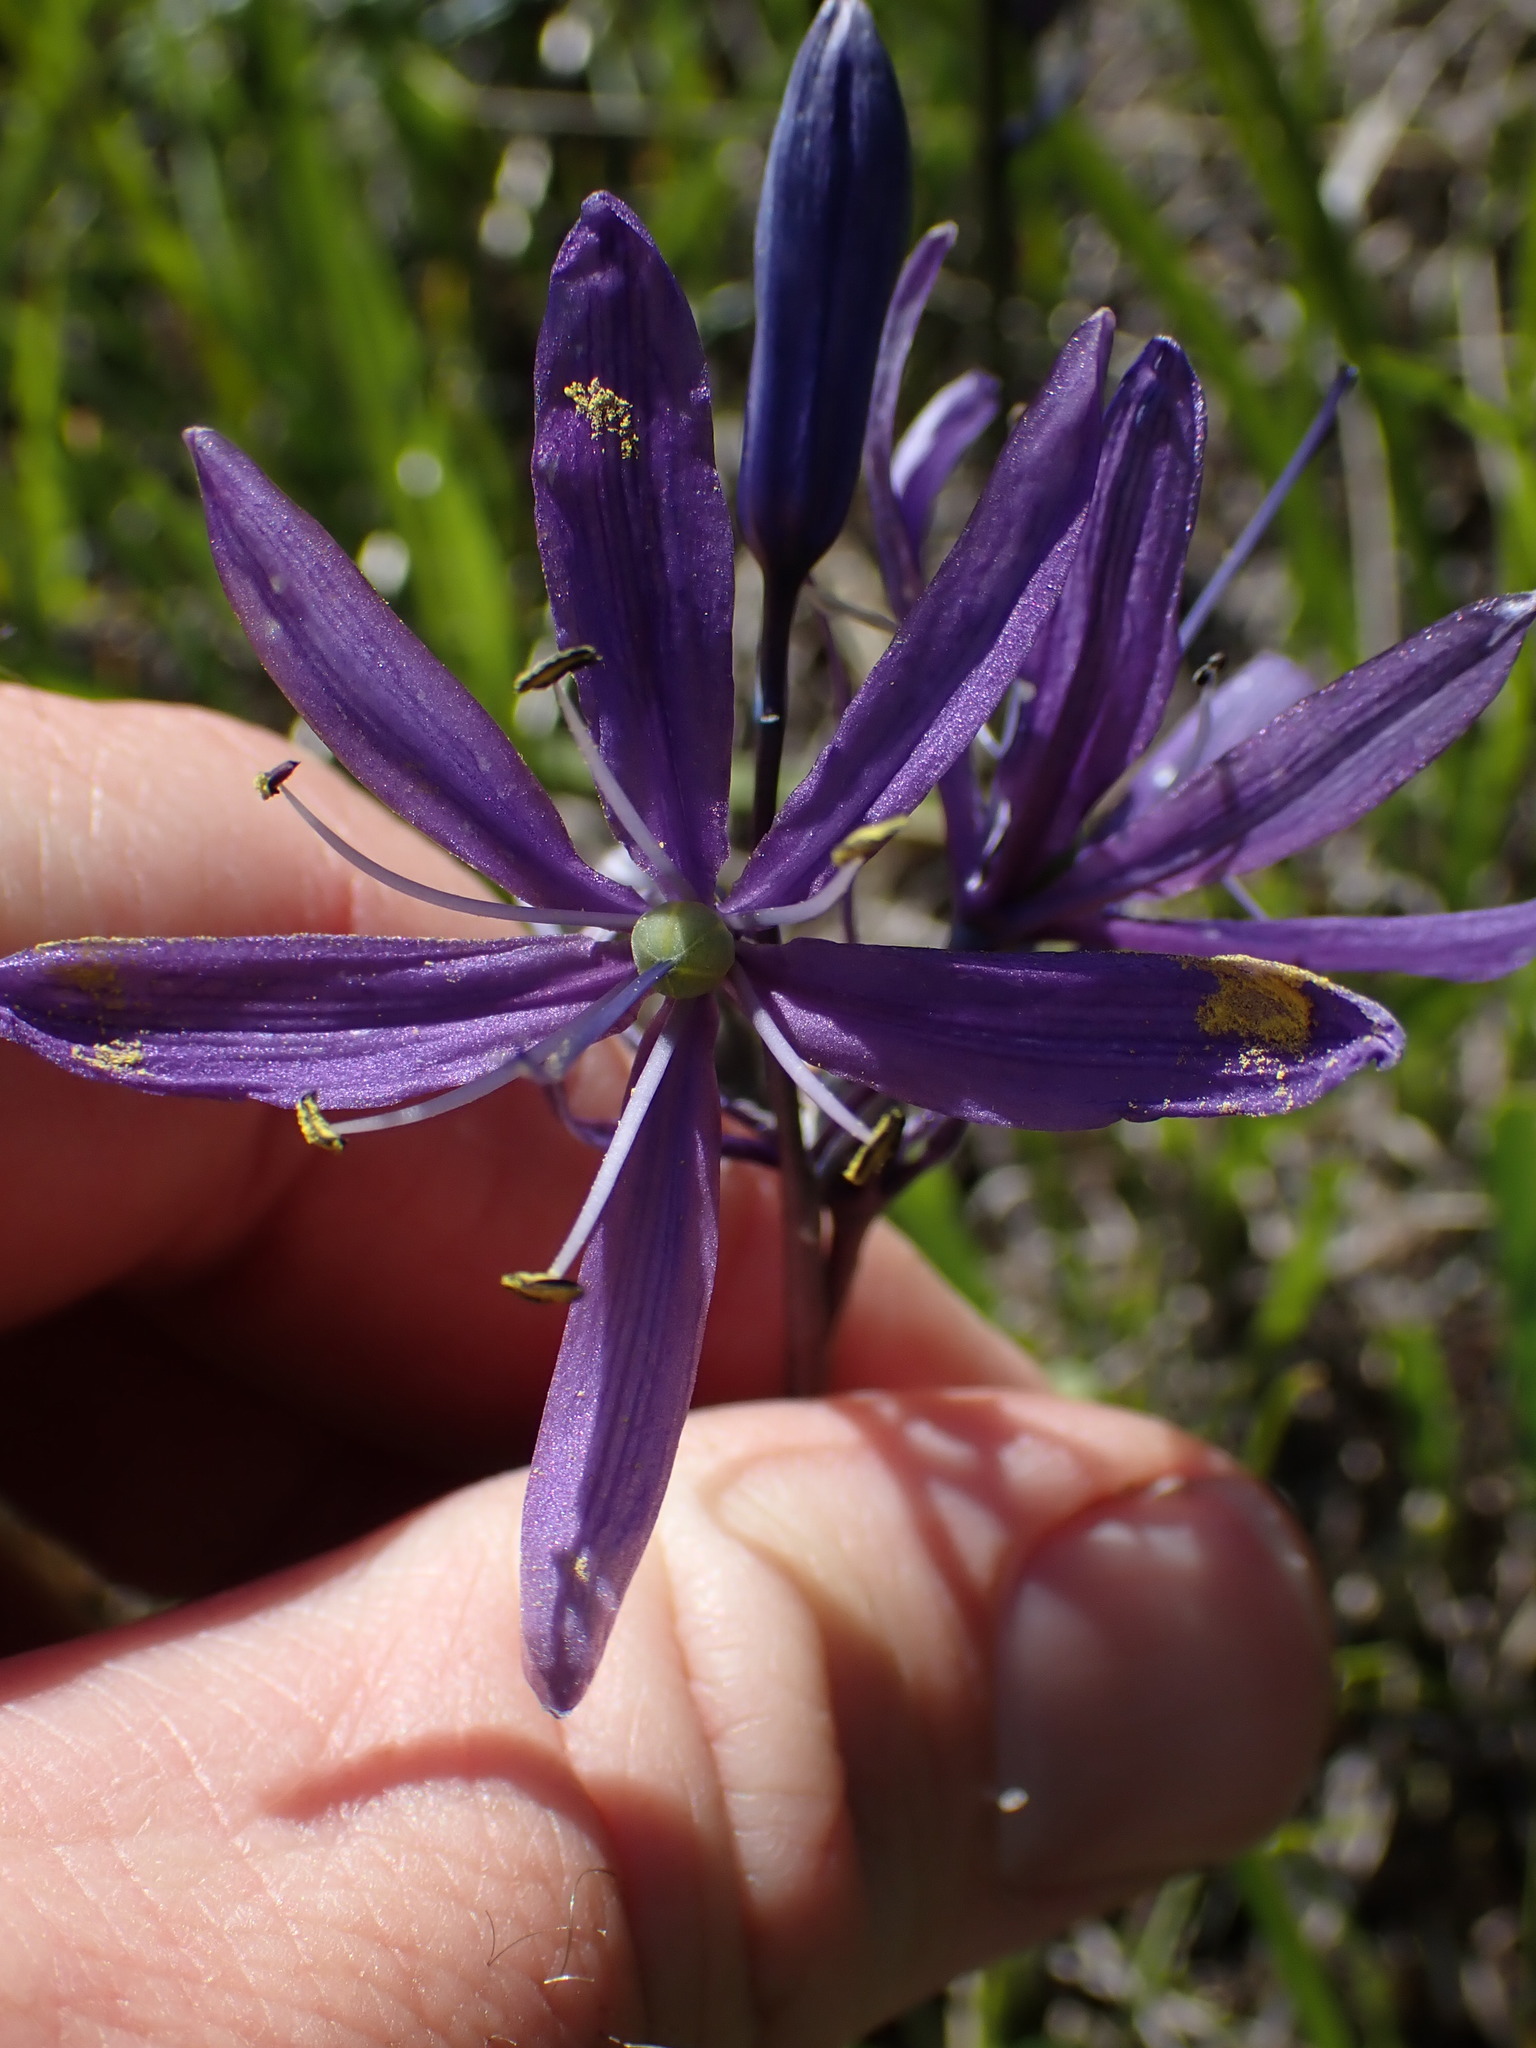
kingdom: Plantae
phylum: Tracheophyta
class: Liliopsida
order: Asparagales
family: Asparagaceae
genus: Camassia
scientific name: Camassia quamash
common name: Common camas
